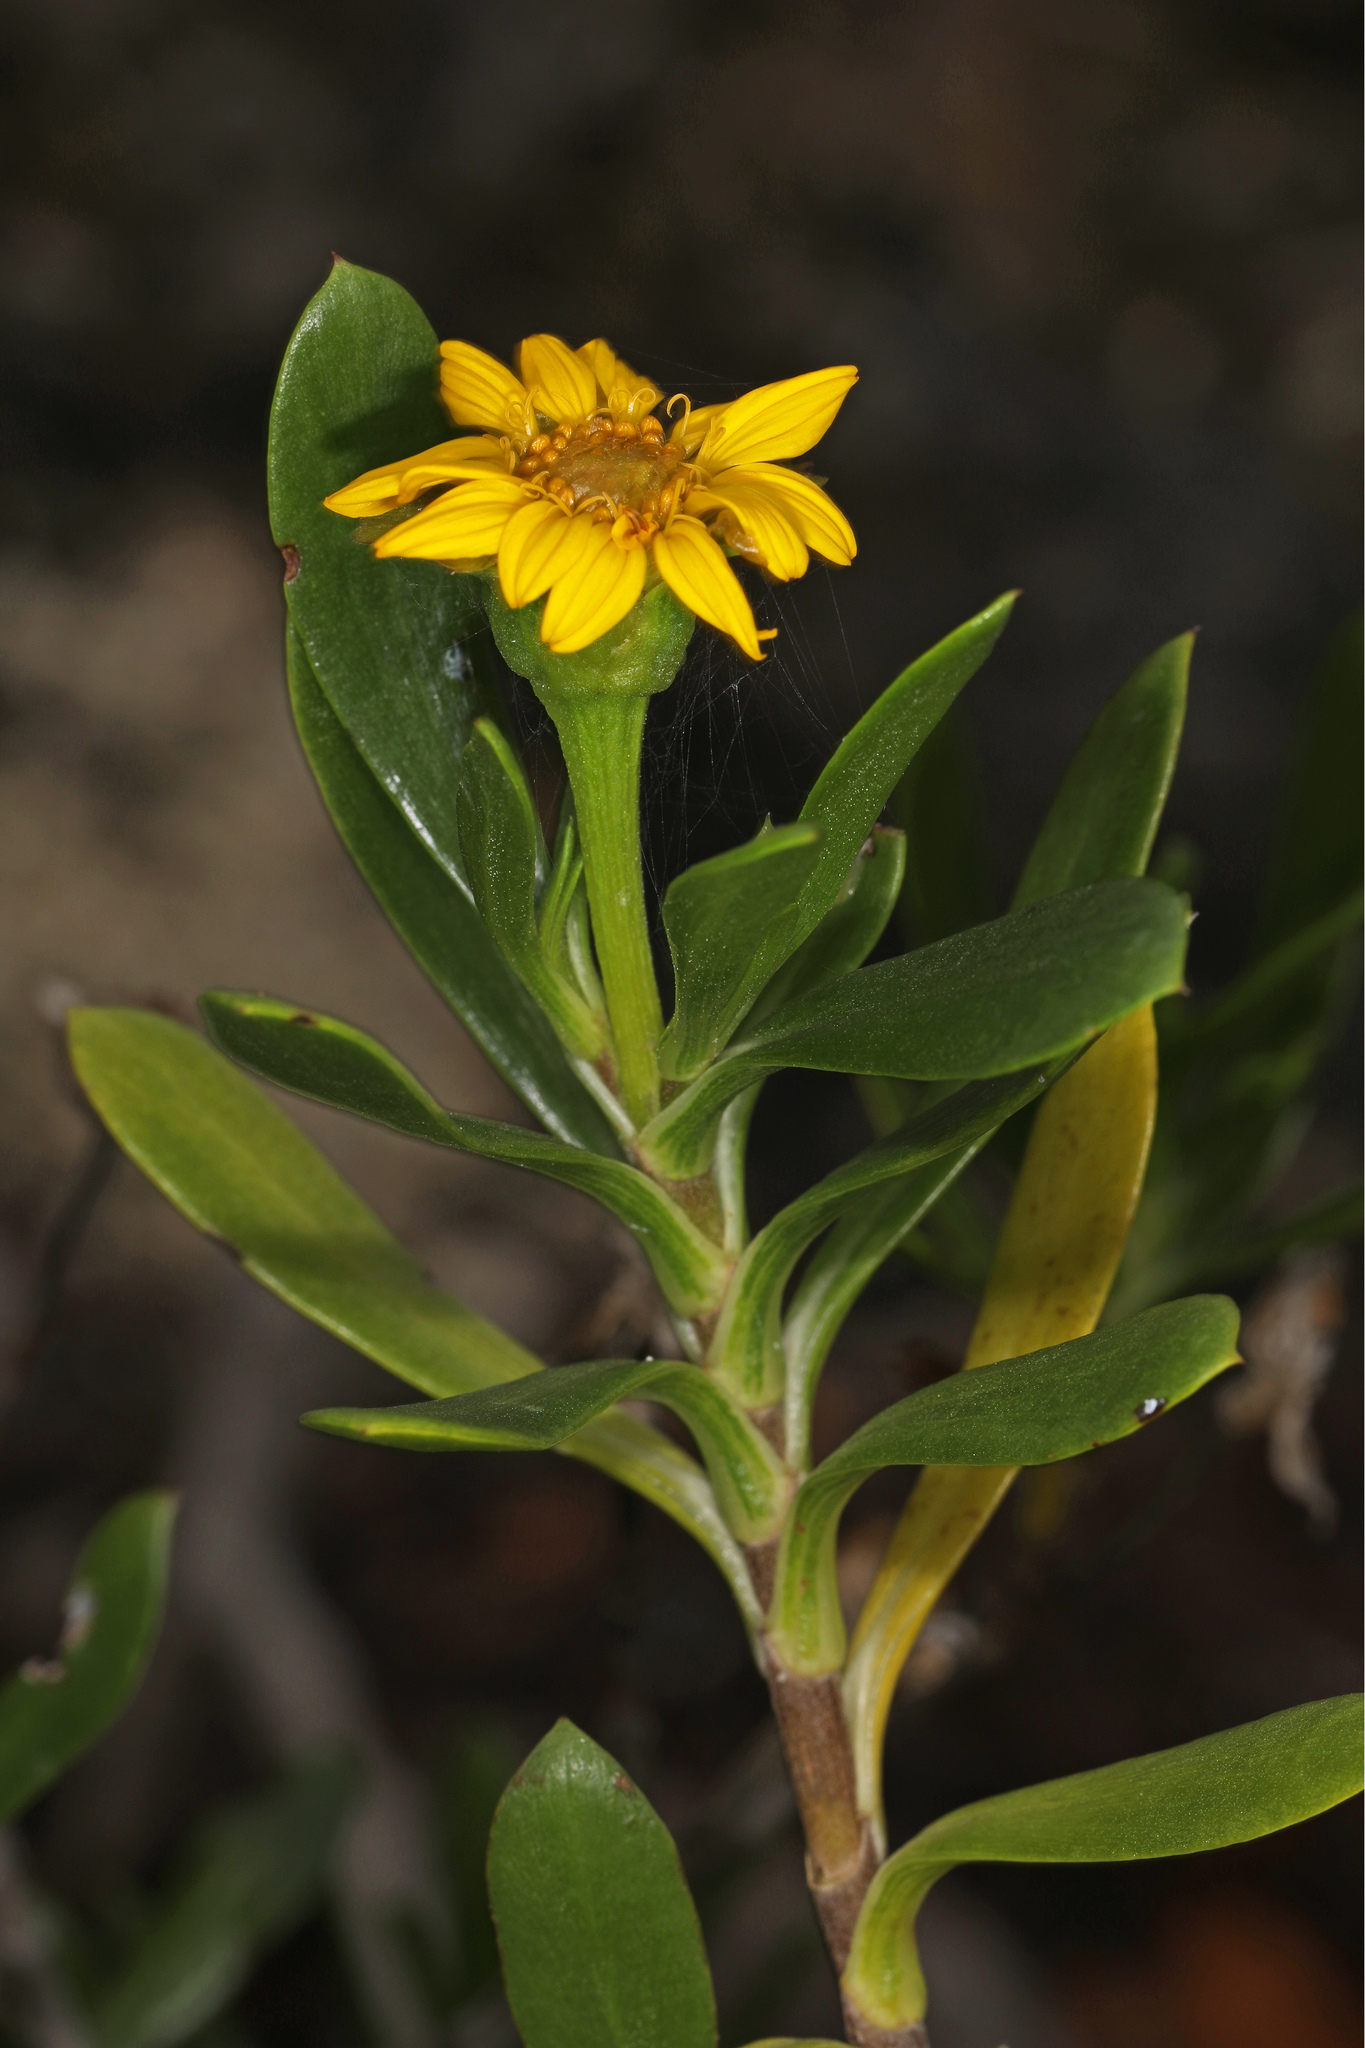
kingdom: Plantae
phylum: Tracheophyta
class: Magnoliopsida
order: Asterales
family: Asteraceae
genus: Borrichia
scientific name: Borrichia arborescens
